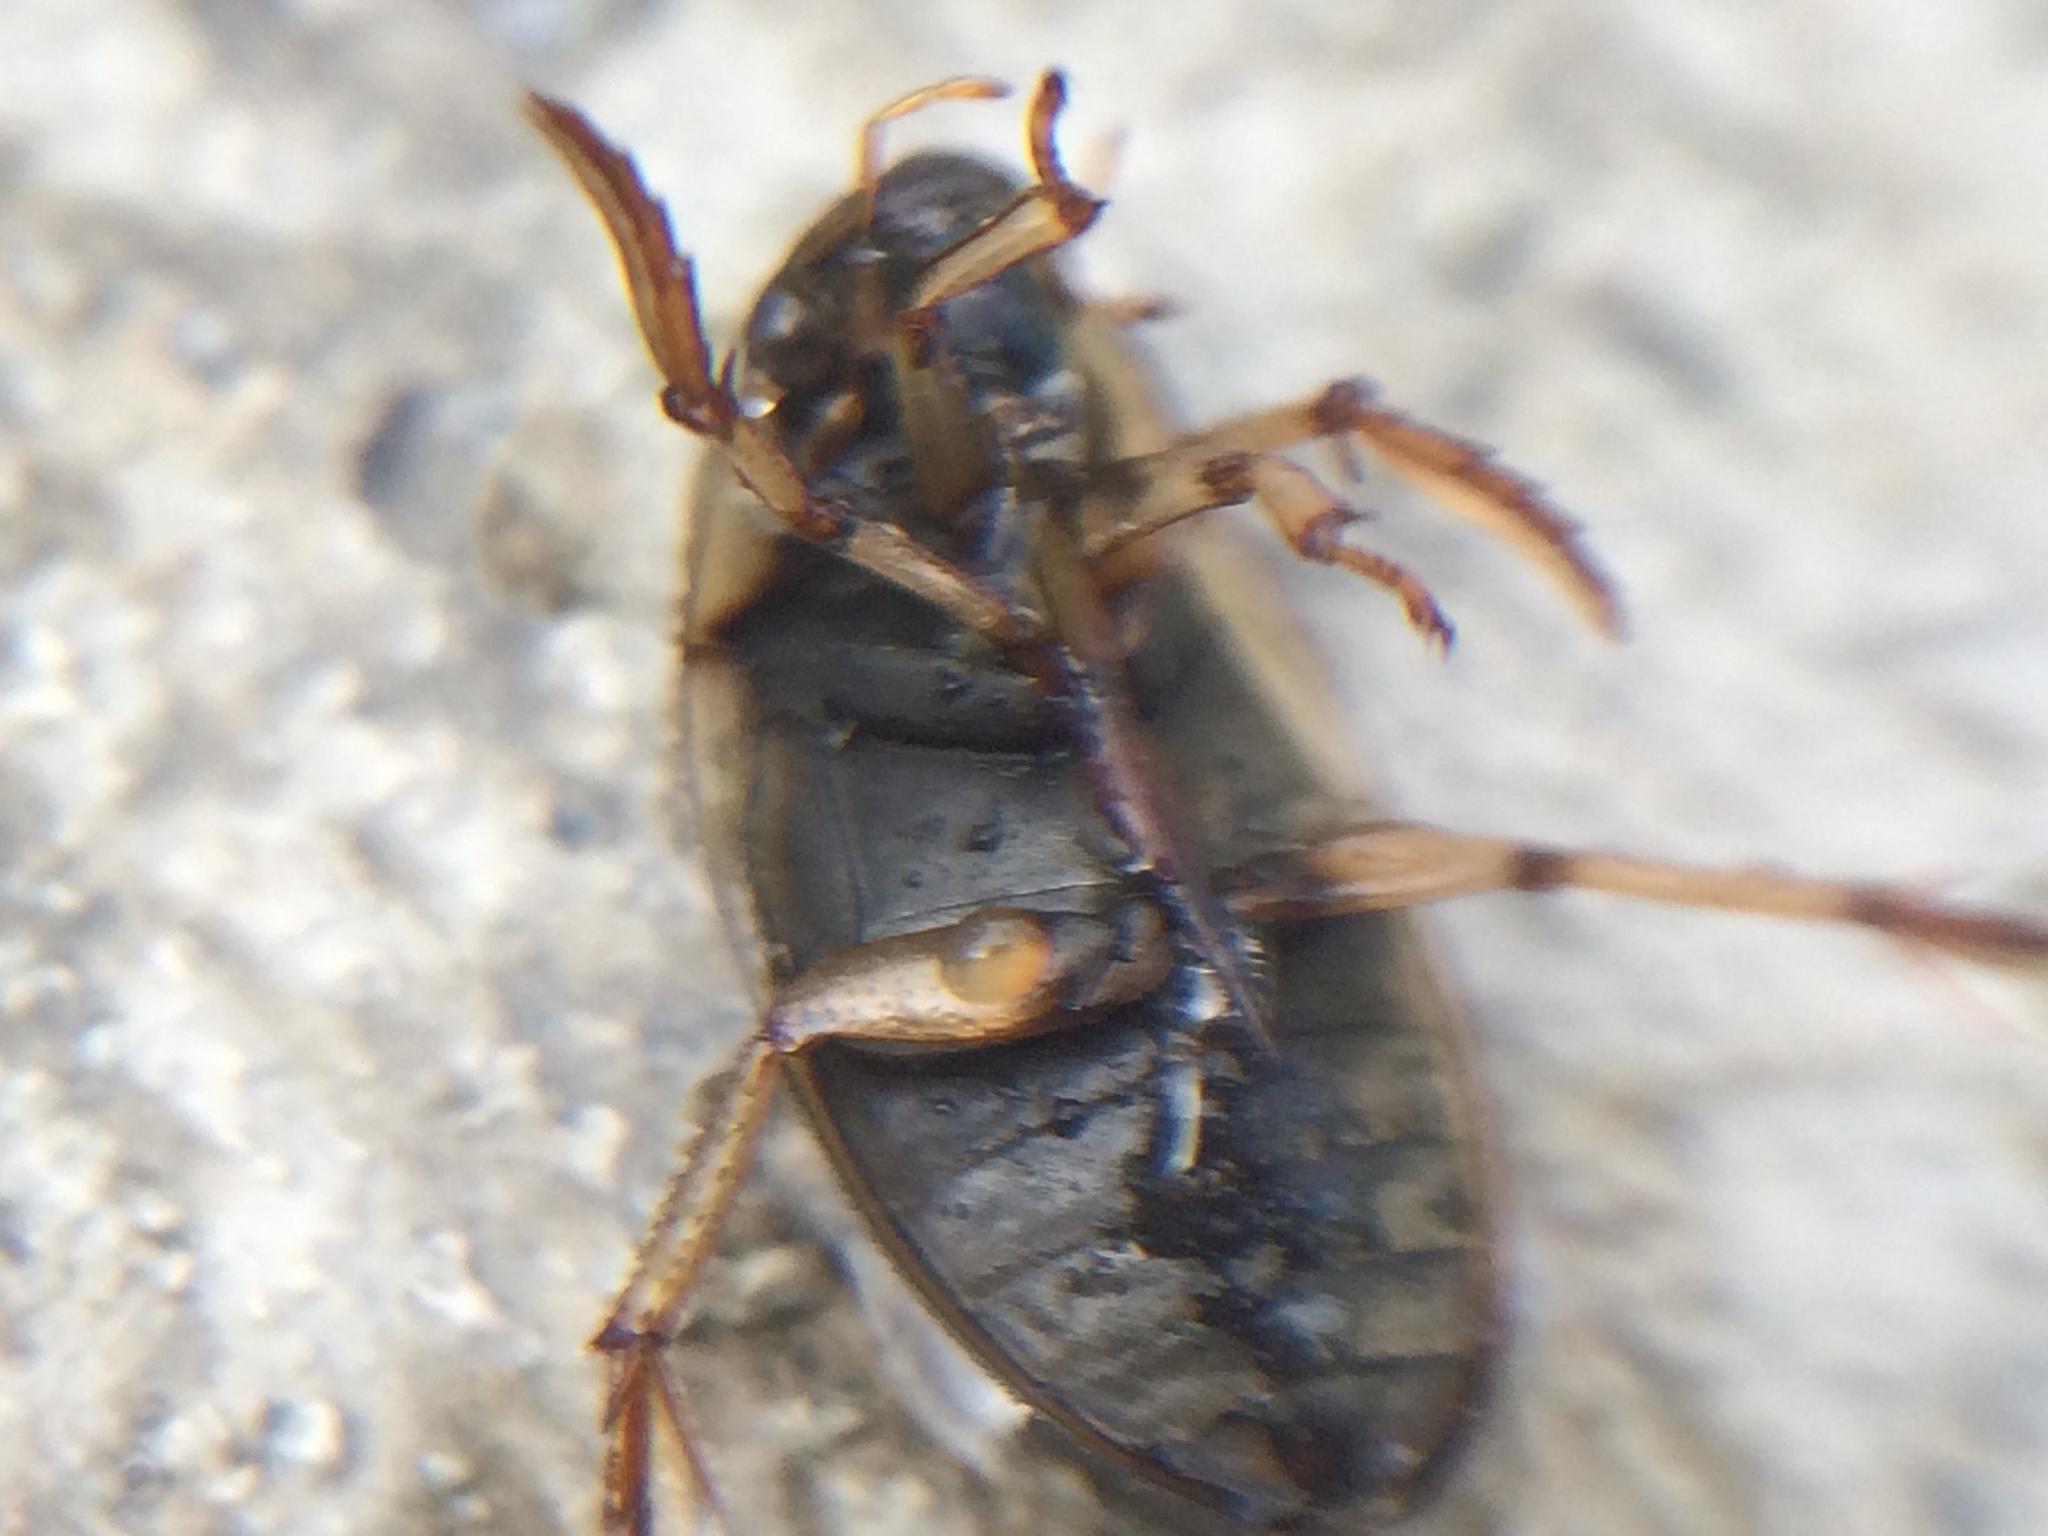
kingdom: Animalia
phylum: Arthropoda
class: Insecta
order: Coleoptera
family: Hydrophilidae
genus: Tropisternus
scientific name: Tropisternus lateralis
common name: Lateral-banded water scavenger beetle
